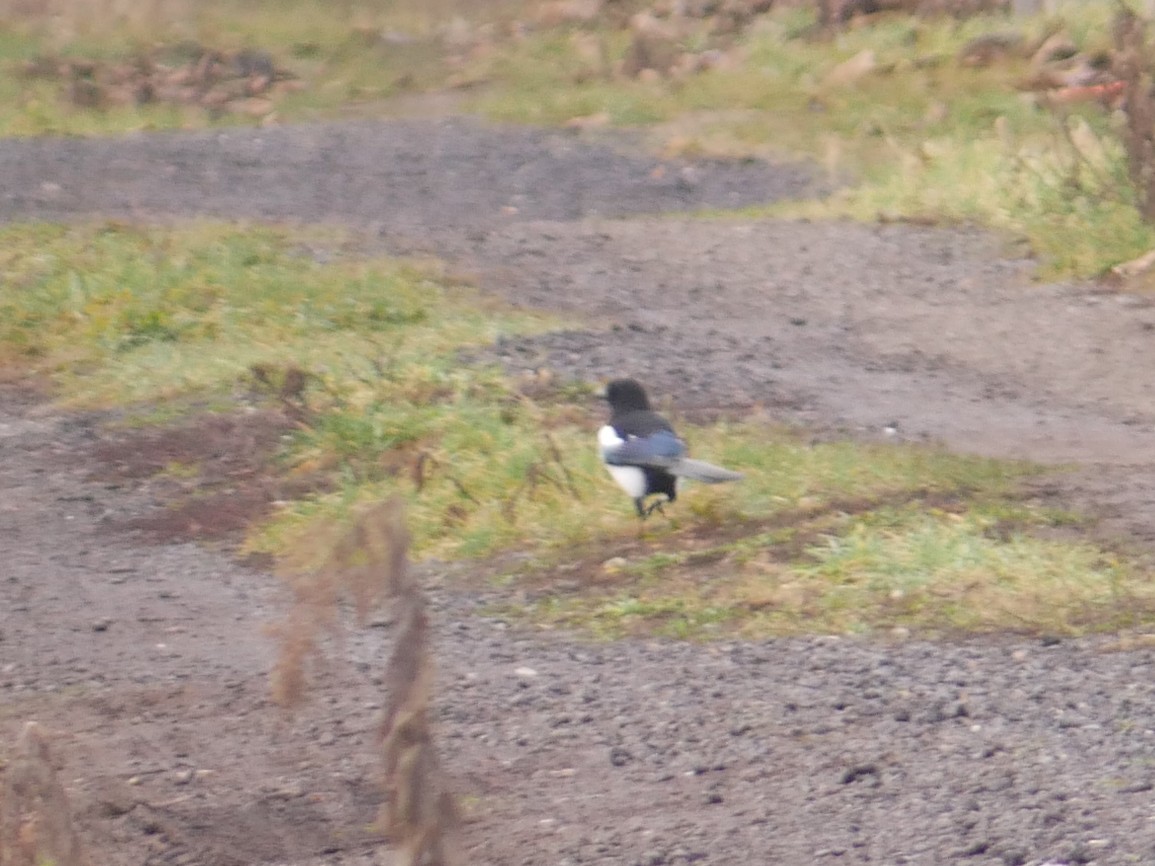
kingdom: Animalia
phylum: Chordata
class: Aves
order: Passeriformes
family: Corvidae
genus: Pica
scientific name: Pica pica
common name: Eurasian magpie
